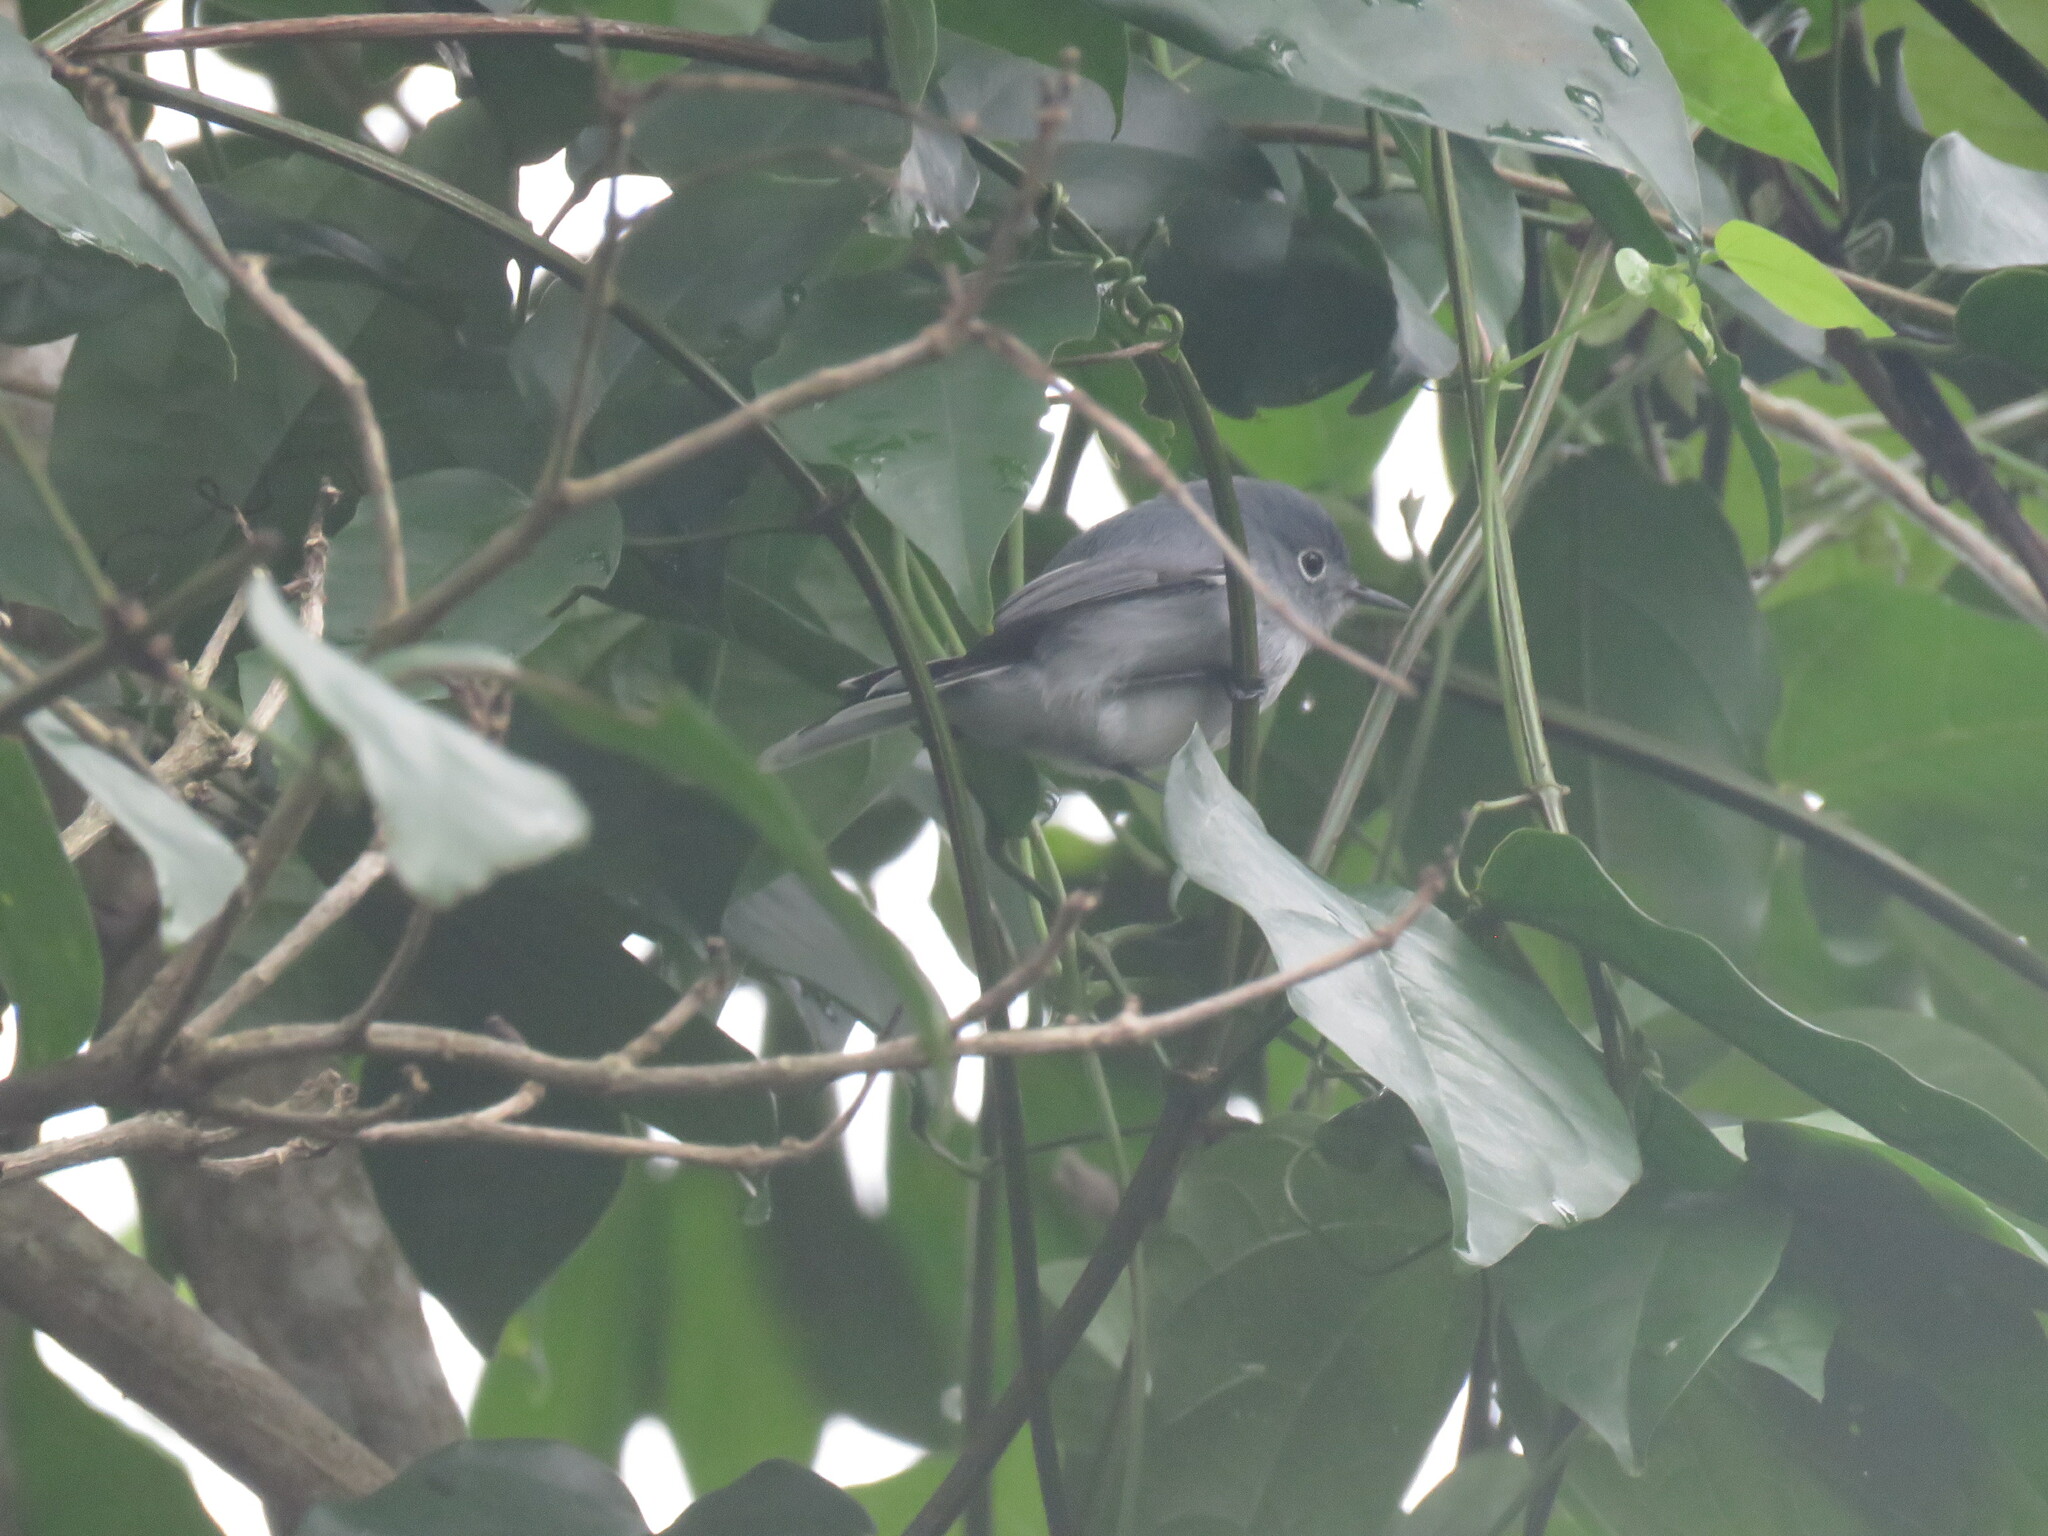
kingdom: Animalia
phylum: Chordata
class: Aves
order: Passeriformes
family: Polioptilidae
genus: Polioptila
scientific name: Polioptila caerulea
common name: Blue-gray gnatcatcher
